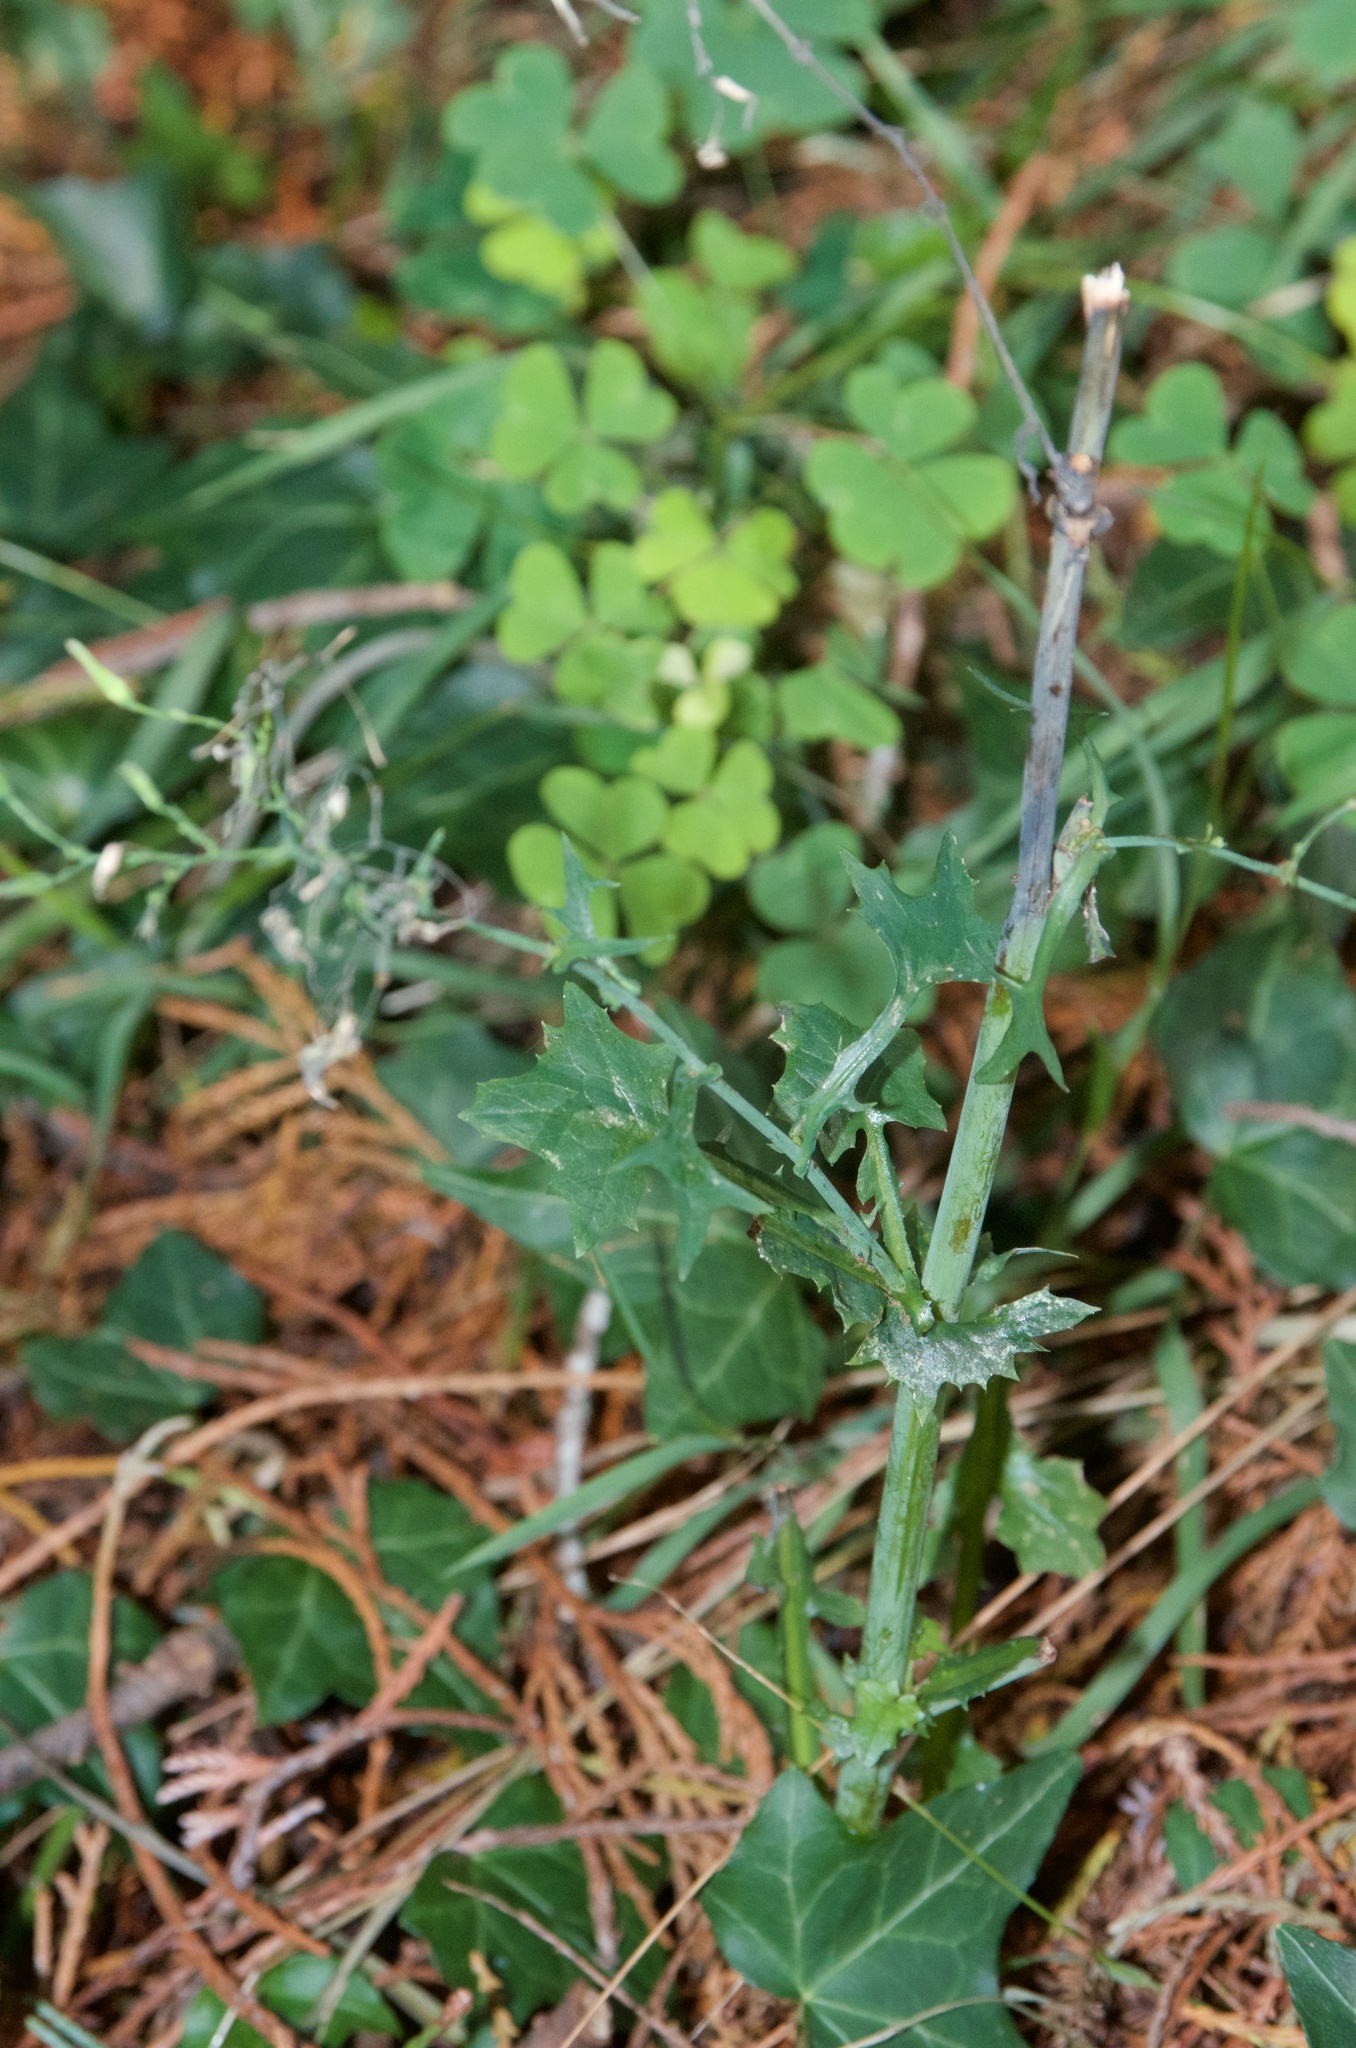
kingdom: Plantae
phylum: Tracheophyta
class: Magnoliopsida
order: Asterales
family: Asteraceae
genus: Mycelis
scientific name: Mycelis muralis
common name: Wall lettuce
